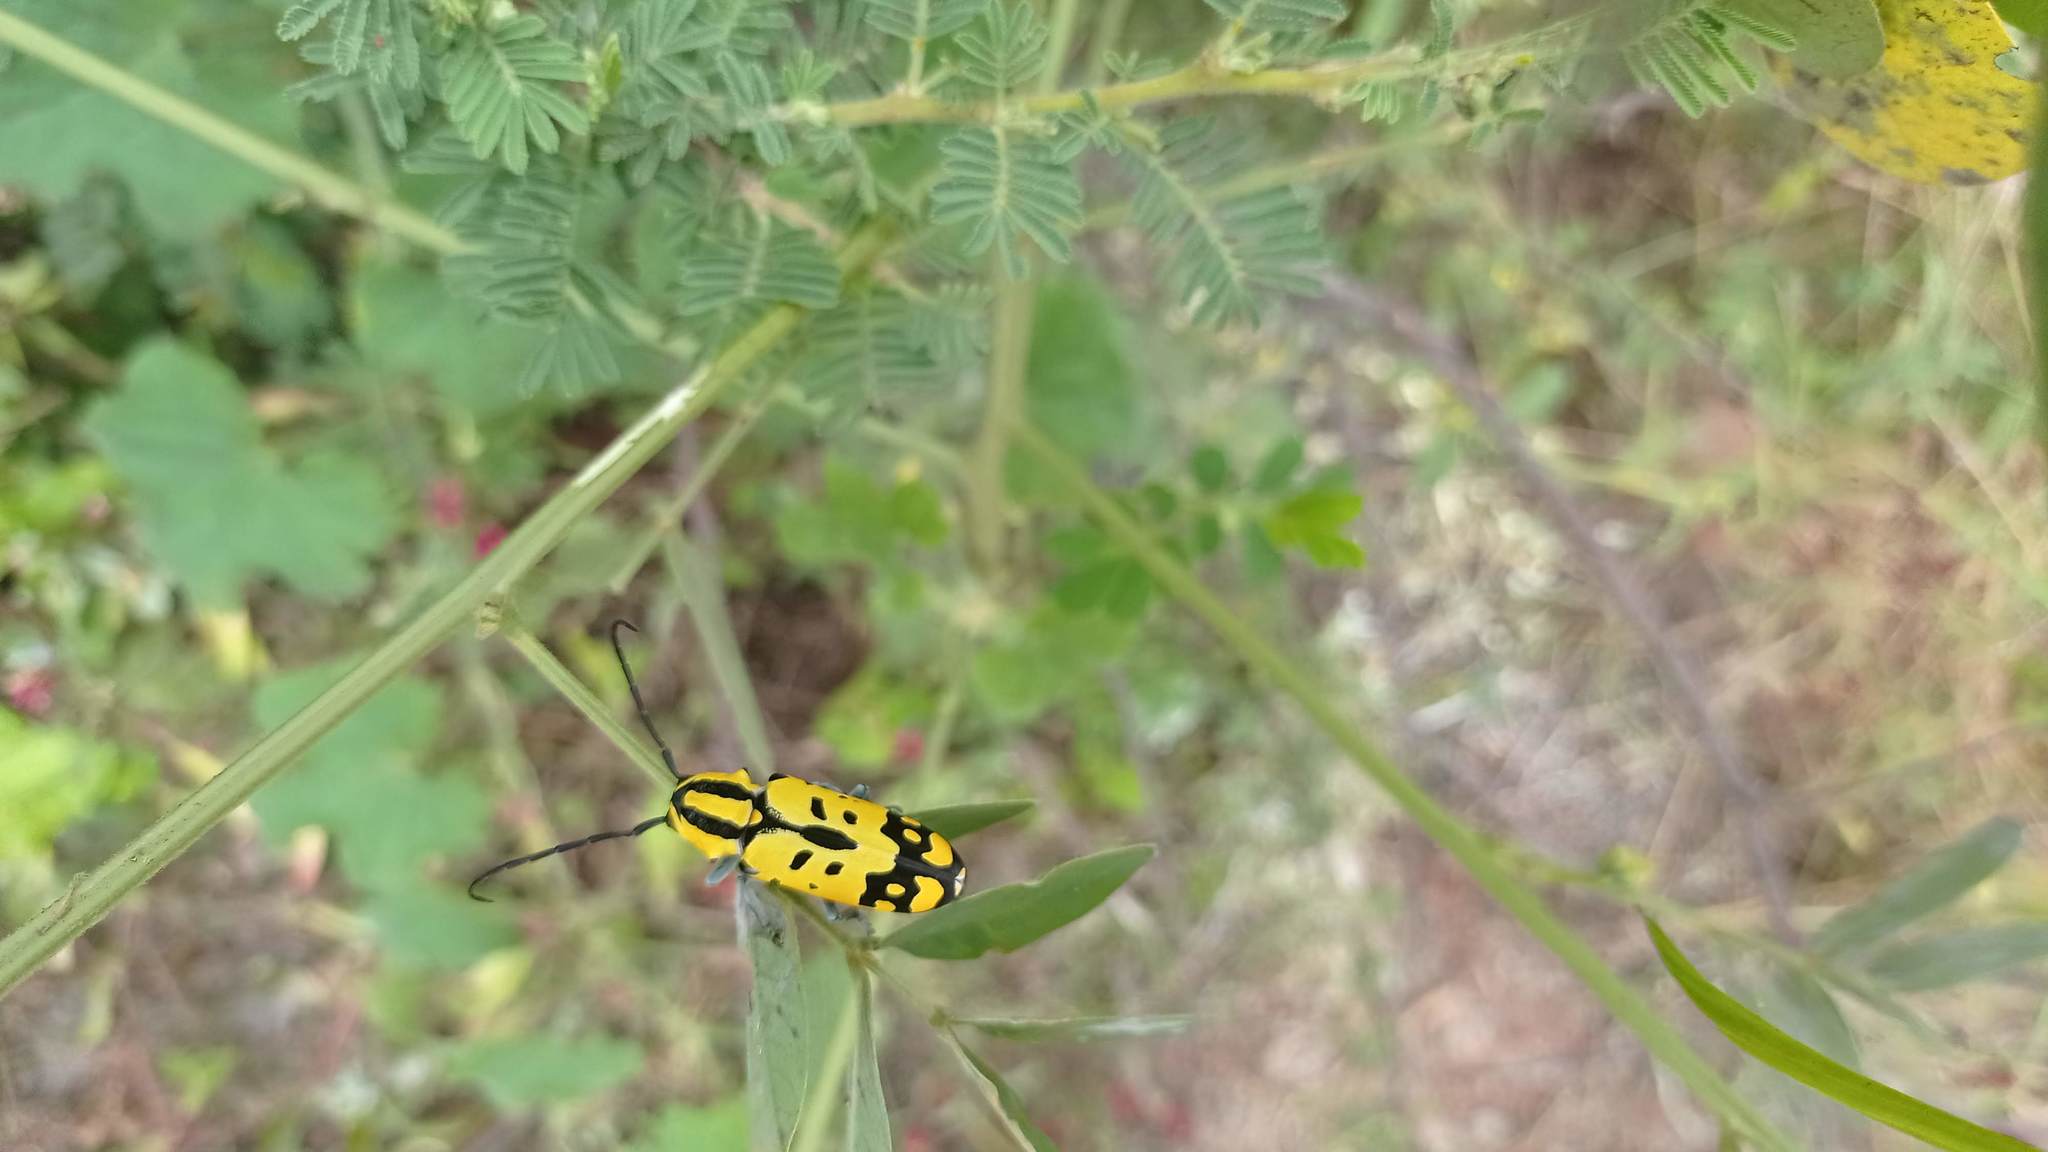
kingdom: Animalia
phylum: Arthropoda
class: Insecta
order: Coleoptera
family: Cerambycidae
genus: Tragocephala
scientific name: Tragocephala variegata
